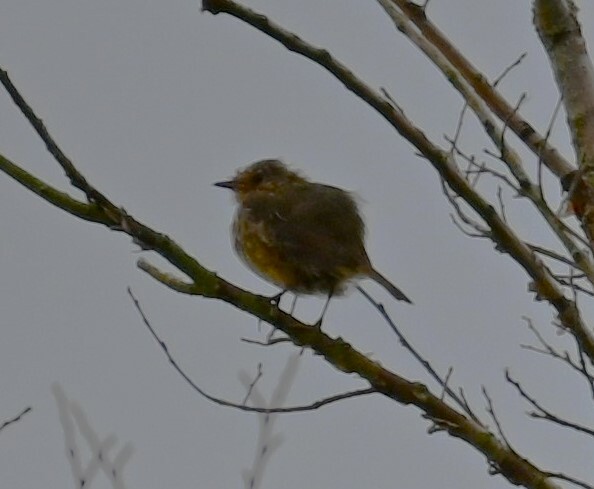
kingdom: Animalia
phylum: Chordata
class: Aves
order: Passeriformes
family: Muscicapidae
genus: Erithacus
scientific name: Erithacus rubecula
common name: European robin
